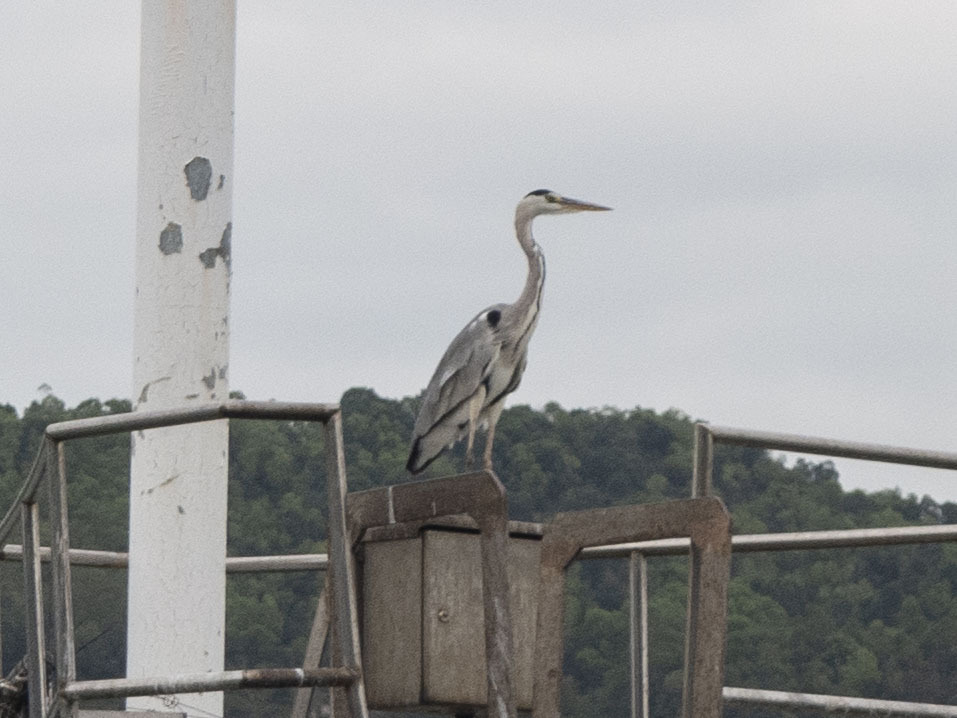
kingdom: Animalia
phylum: Chordata
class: Aves
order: Pelecaniformes
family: Ardeidae
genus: Ardea
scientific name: Ardea cinerea
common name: Grey heron
